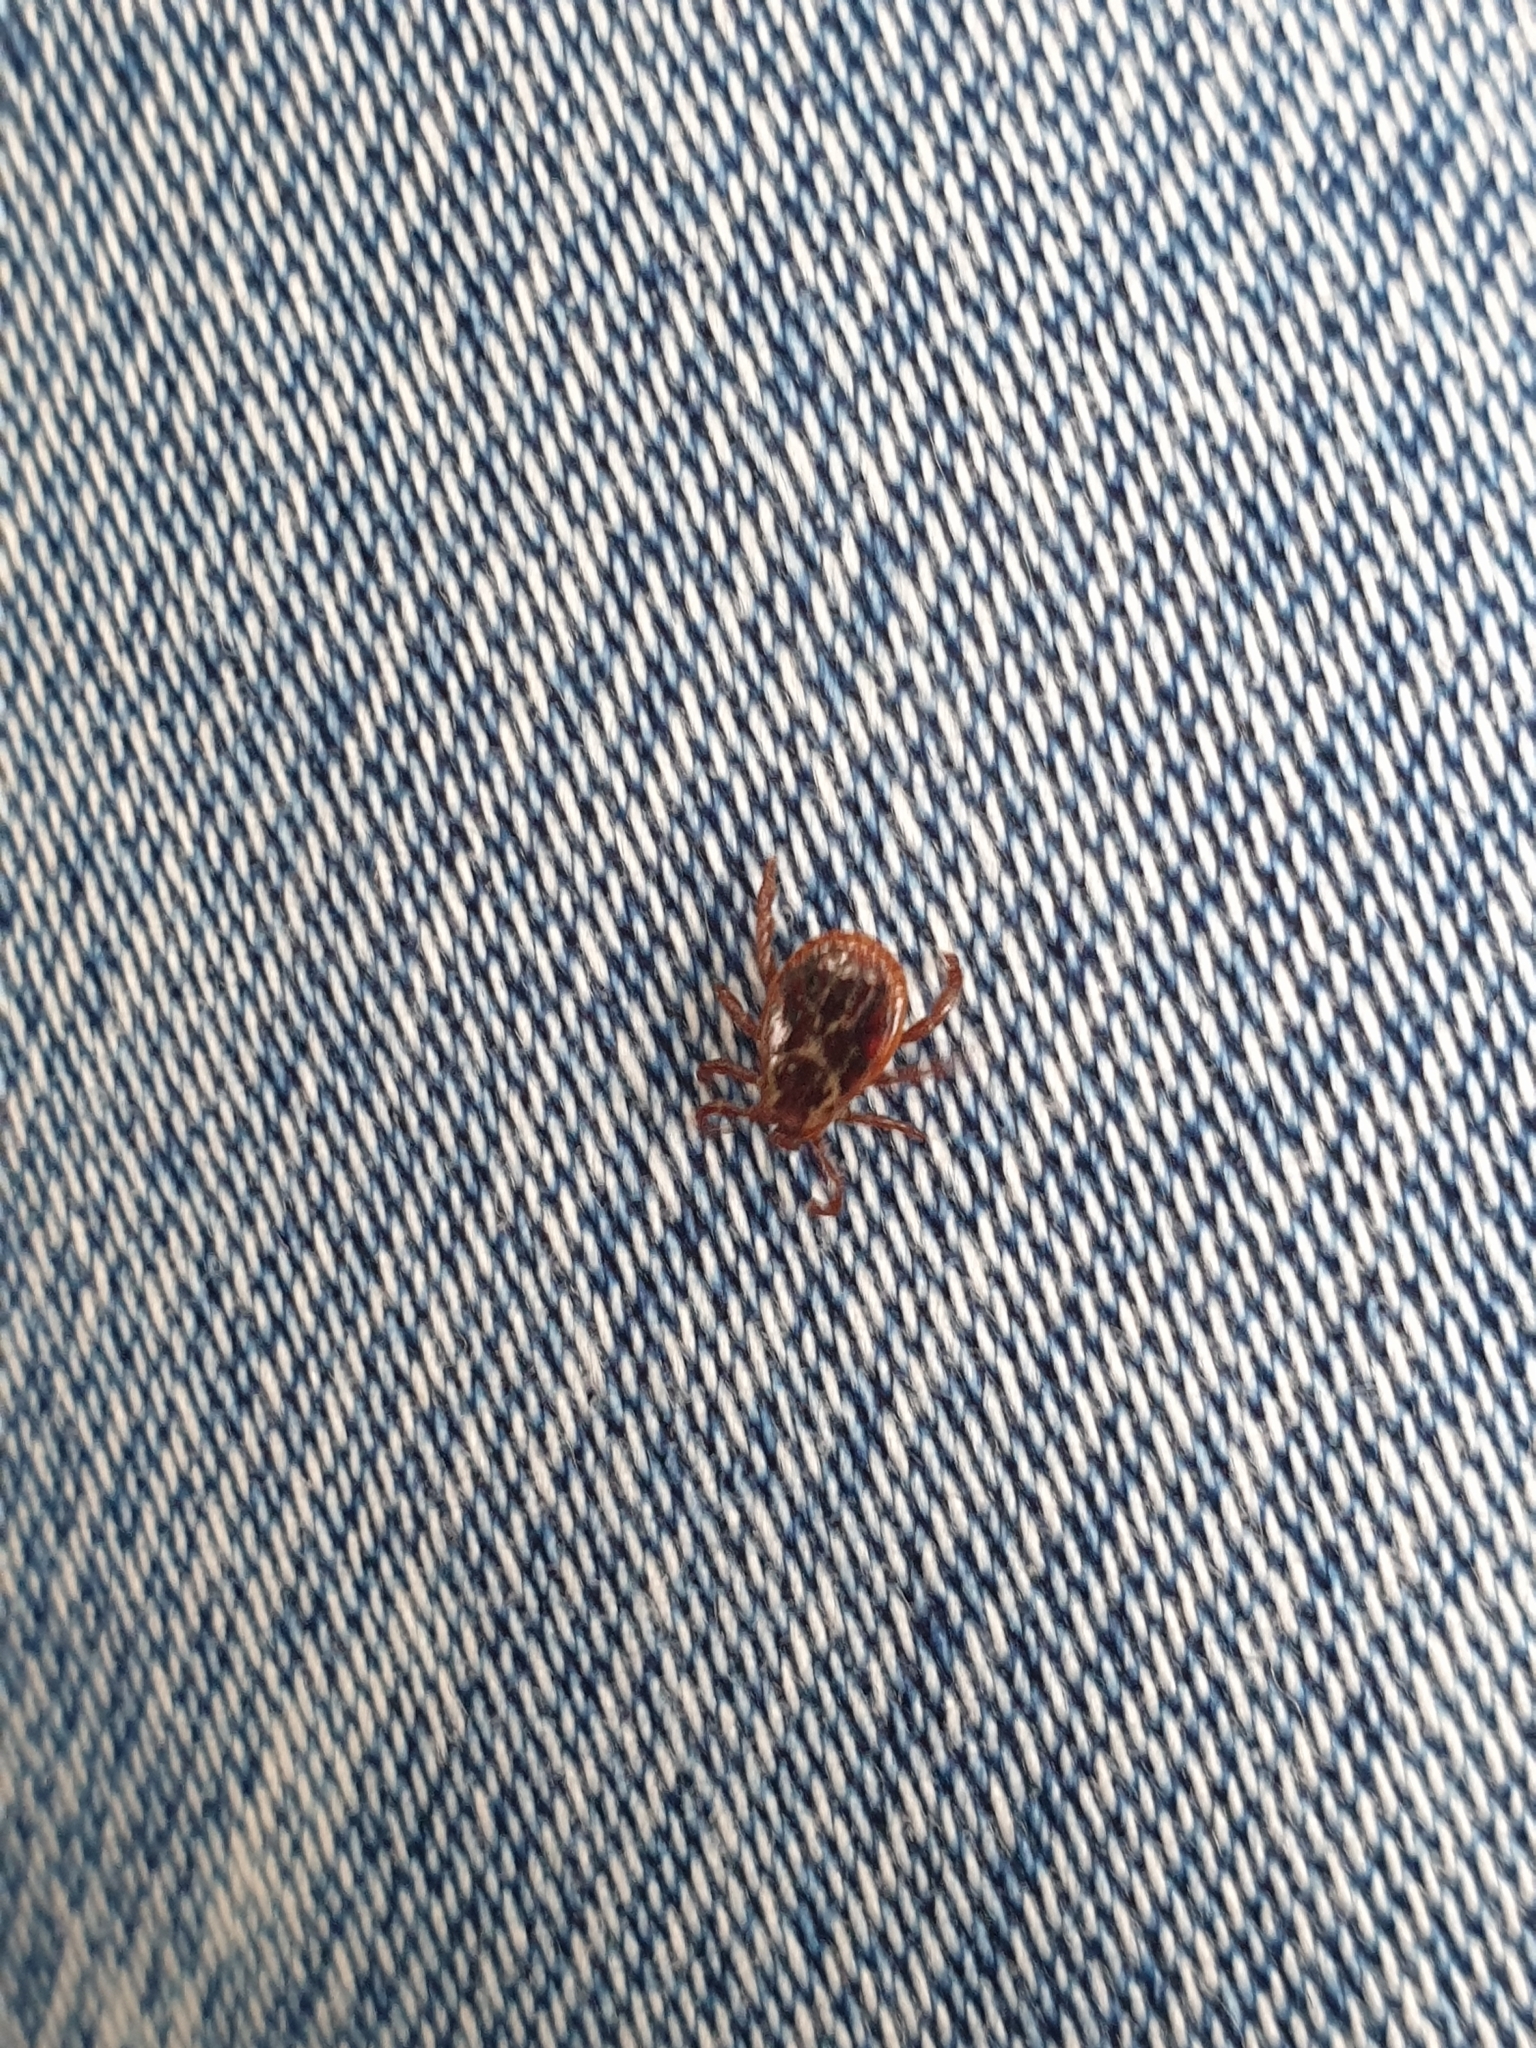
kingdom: Animalia
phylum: Arthropoda
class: Arachnida
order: Ixodida
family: Ixodidae
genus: Dermacentor
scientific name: Dermacentor reticulatus
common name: Ornate cow tick
